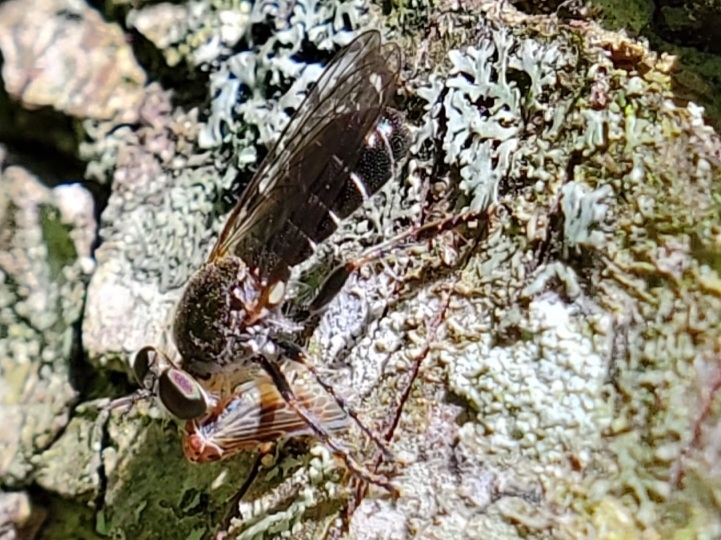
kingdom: Animalia
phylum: Arthropoda
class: Insecta
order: Diptera
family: Asilidae
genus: Atomosia
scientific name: Atomosia puella
